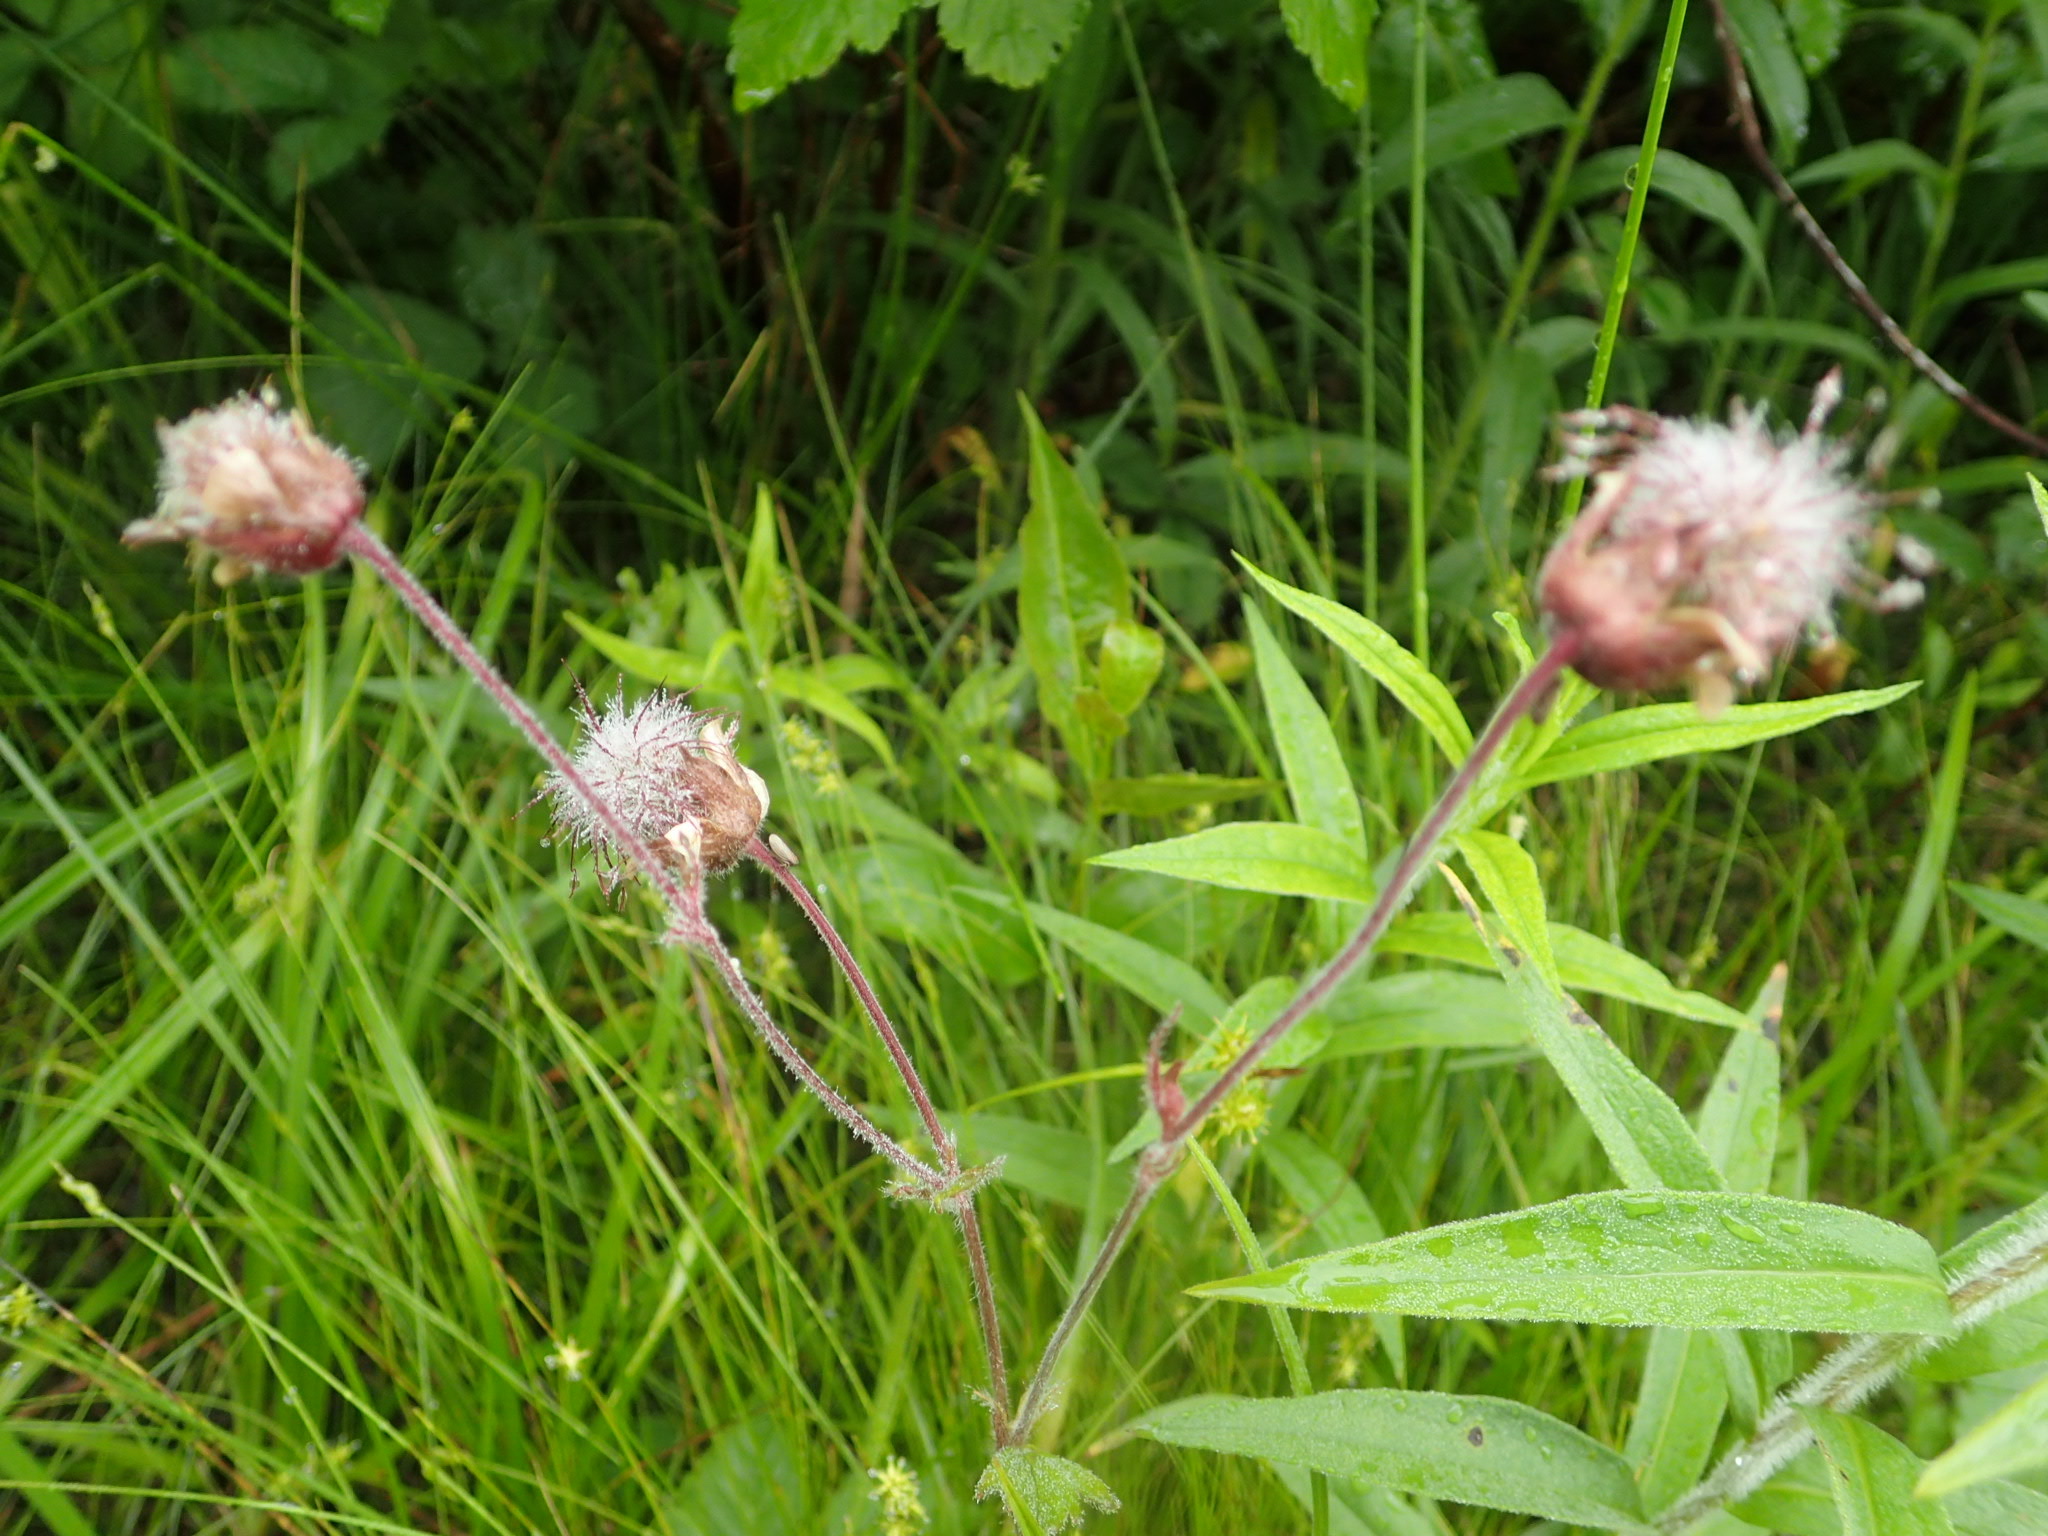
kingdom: Plantae
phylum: Tracheophyta
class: Magnoliopsida
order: Rosales
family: Rosaceae
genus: Geum
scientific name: Geum rivale
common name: Water avens
